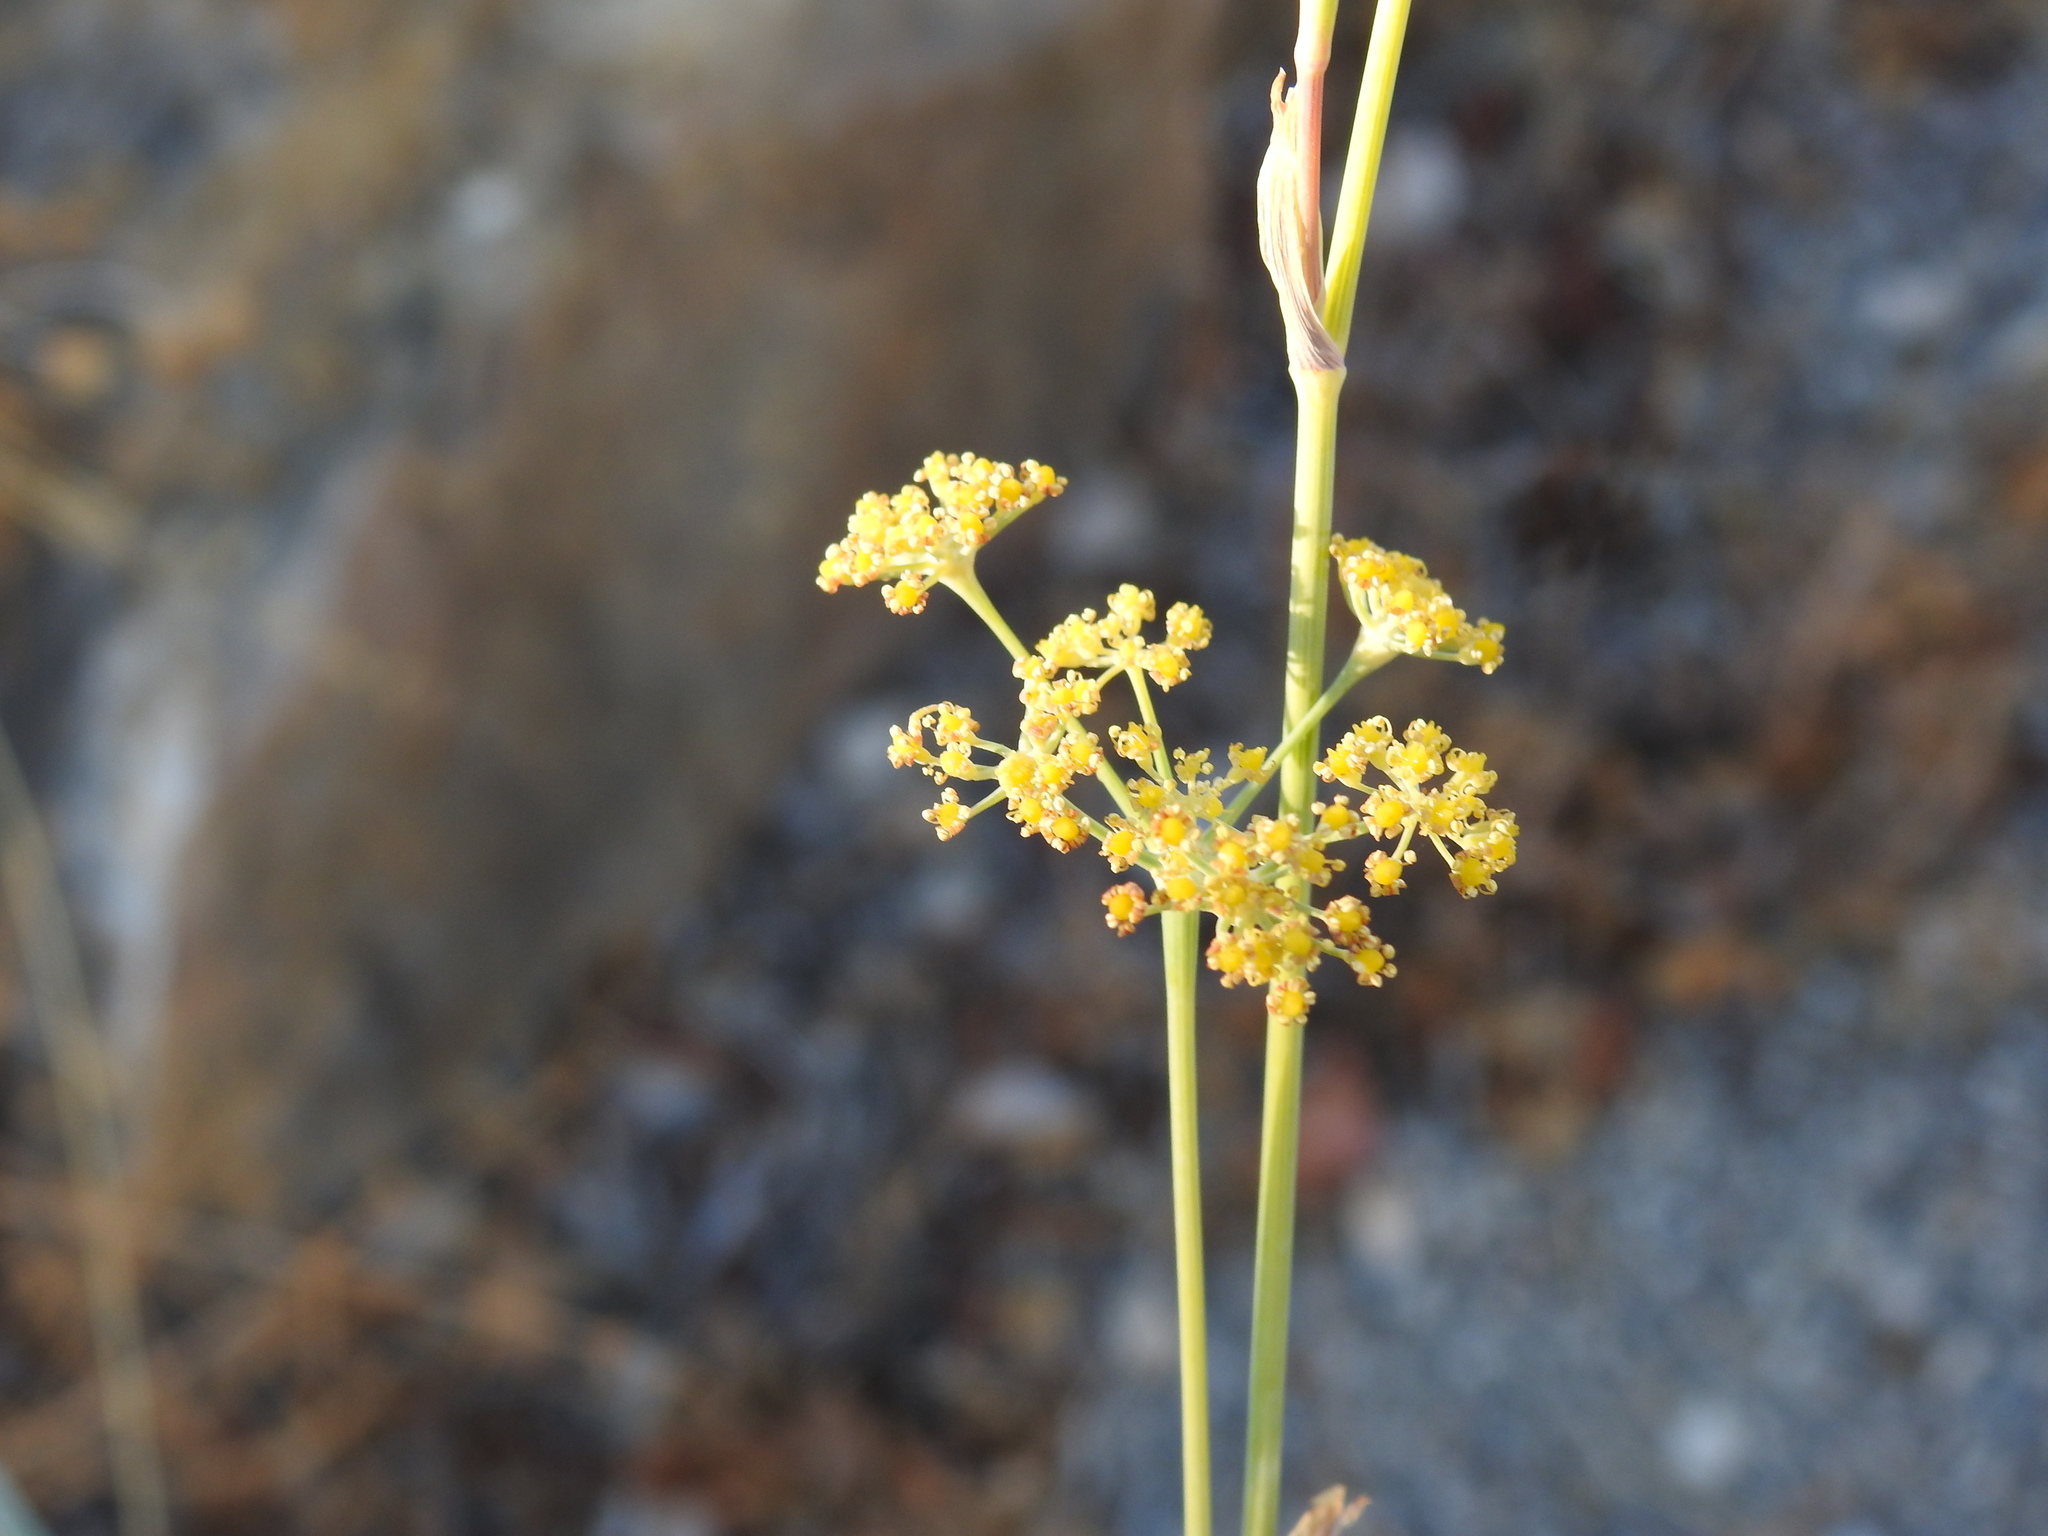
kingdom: Plantae
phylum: Tracheophyta
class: Magnoliopsida
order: Apiales
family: Apiaceae
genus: Foeniculum
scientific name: Foeniculum vulgare
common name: Fennel
